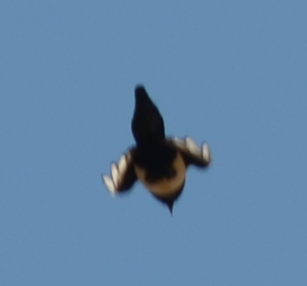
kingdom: Animalia
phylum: Chordata
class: Aves
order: Passeriformes
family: Corvidae
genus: Pica
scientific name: Pica pica
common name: Eurasian magpie
